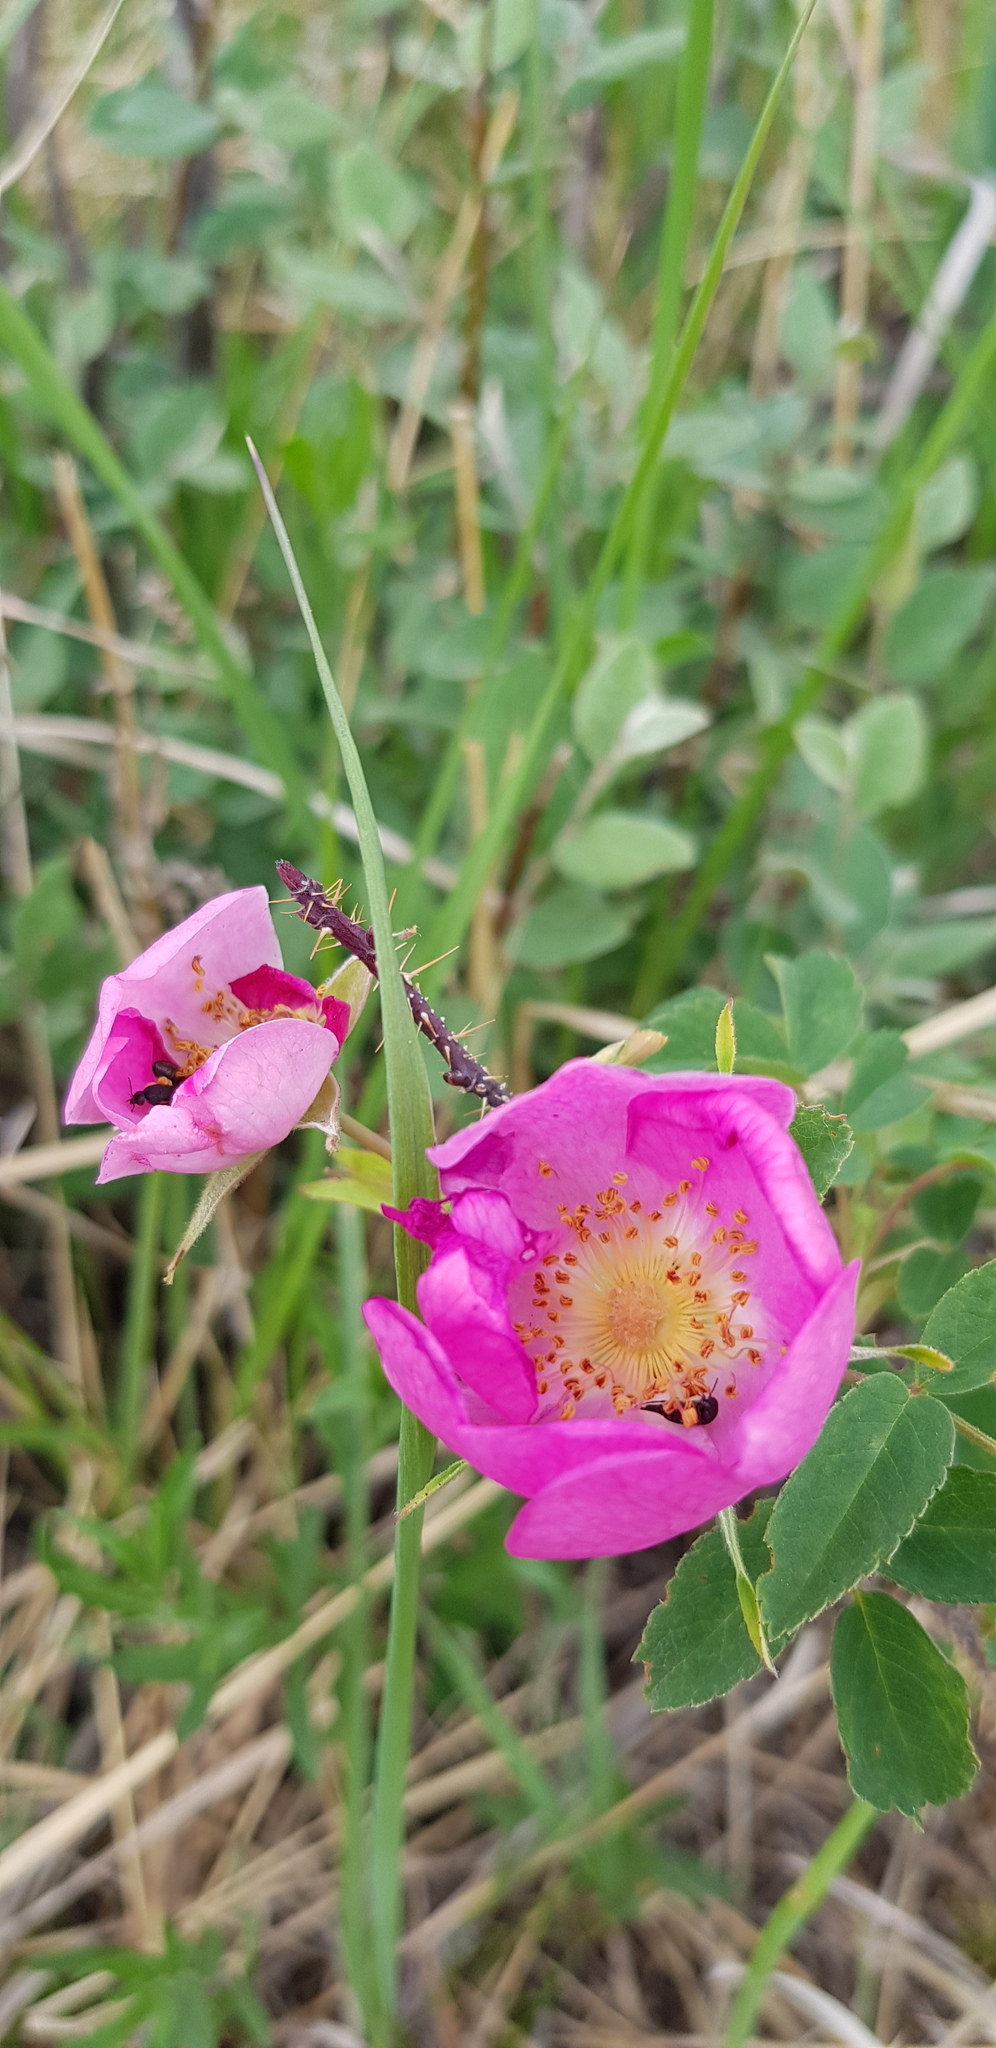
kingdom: Plantae
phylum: Tracheophyta
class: Magnoliopsida
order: Rosales
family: Rosaceae
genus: Rosa
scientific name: Rosa acicularis
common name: Prickly rose
